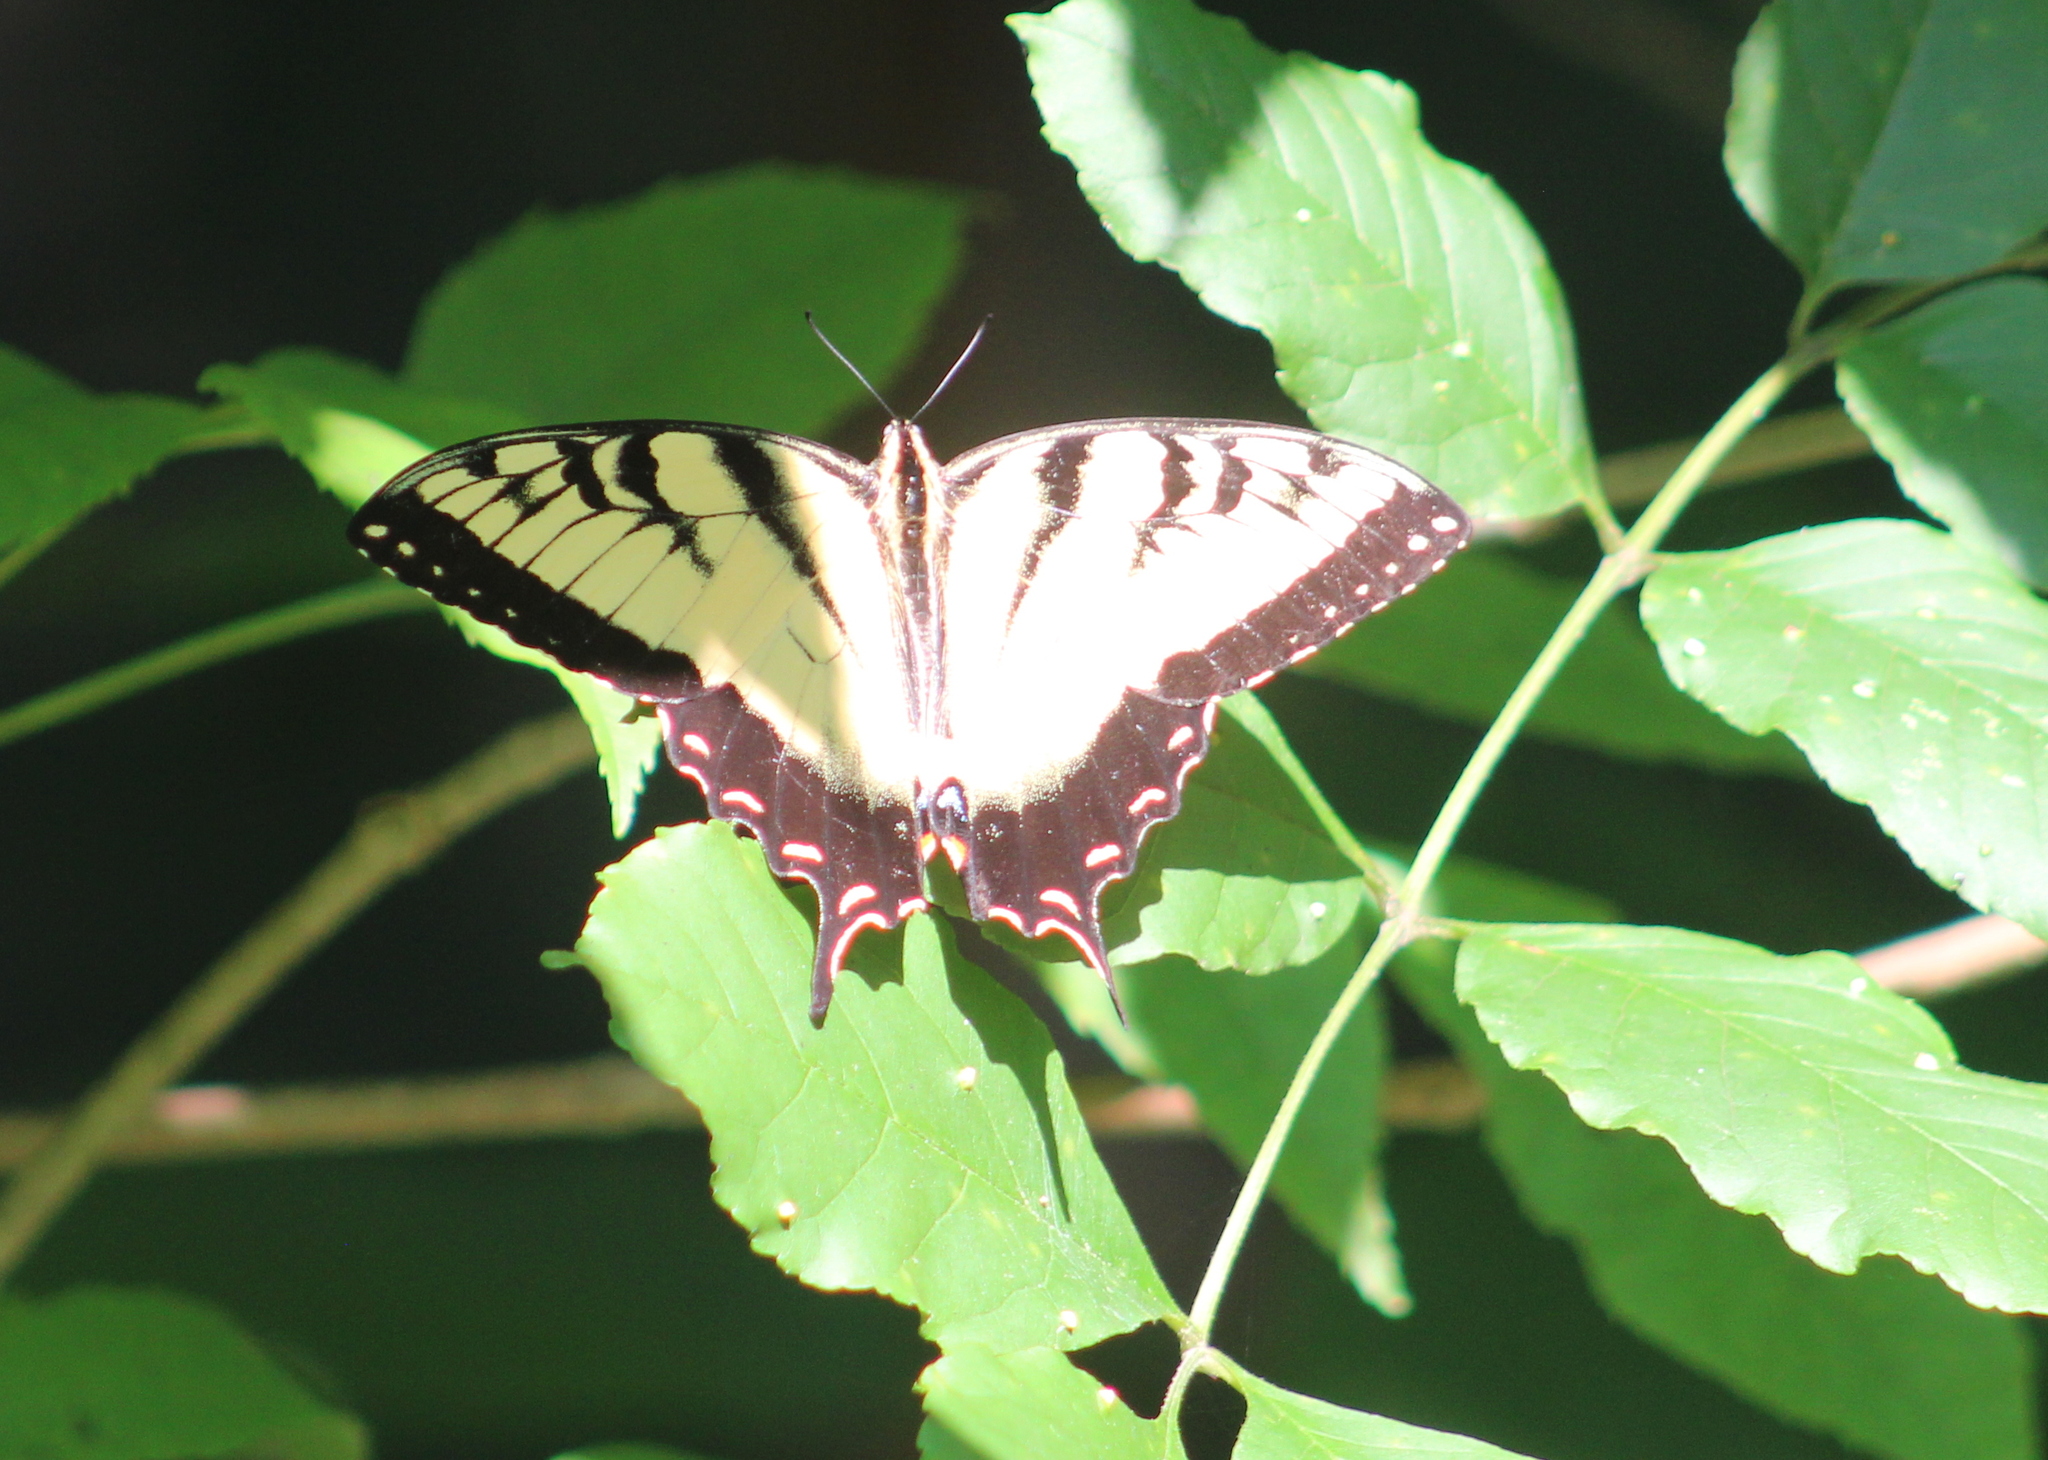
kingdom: Animalia
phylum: Arthropoda
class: Insecta
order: Lepidoptera
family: Papilionidae
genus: Papilio
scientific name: Papilio glaucus
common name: Tiger swallowtail
